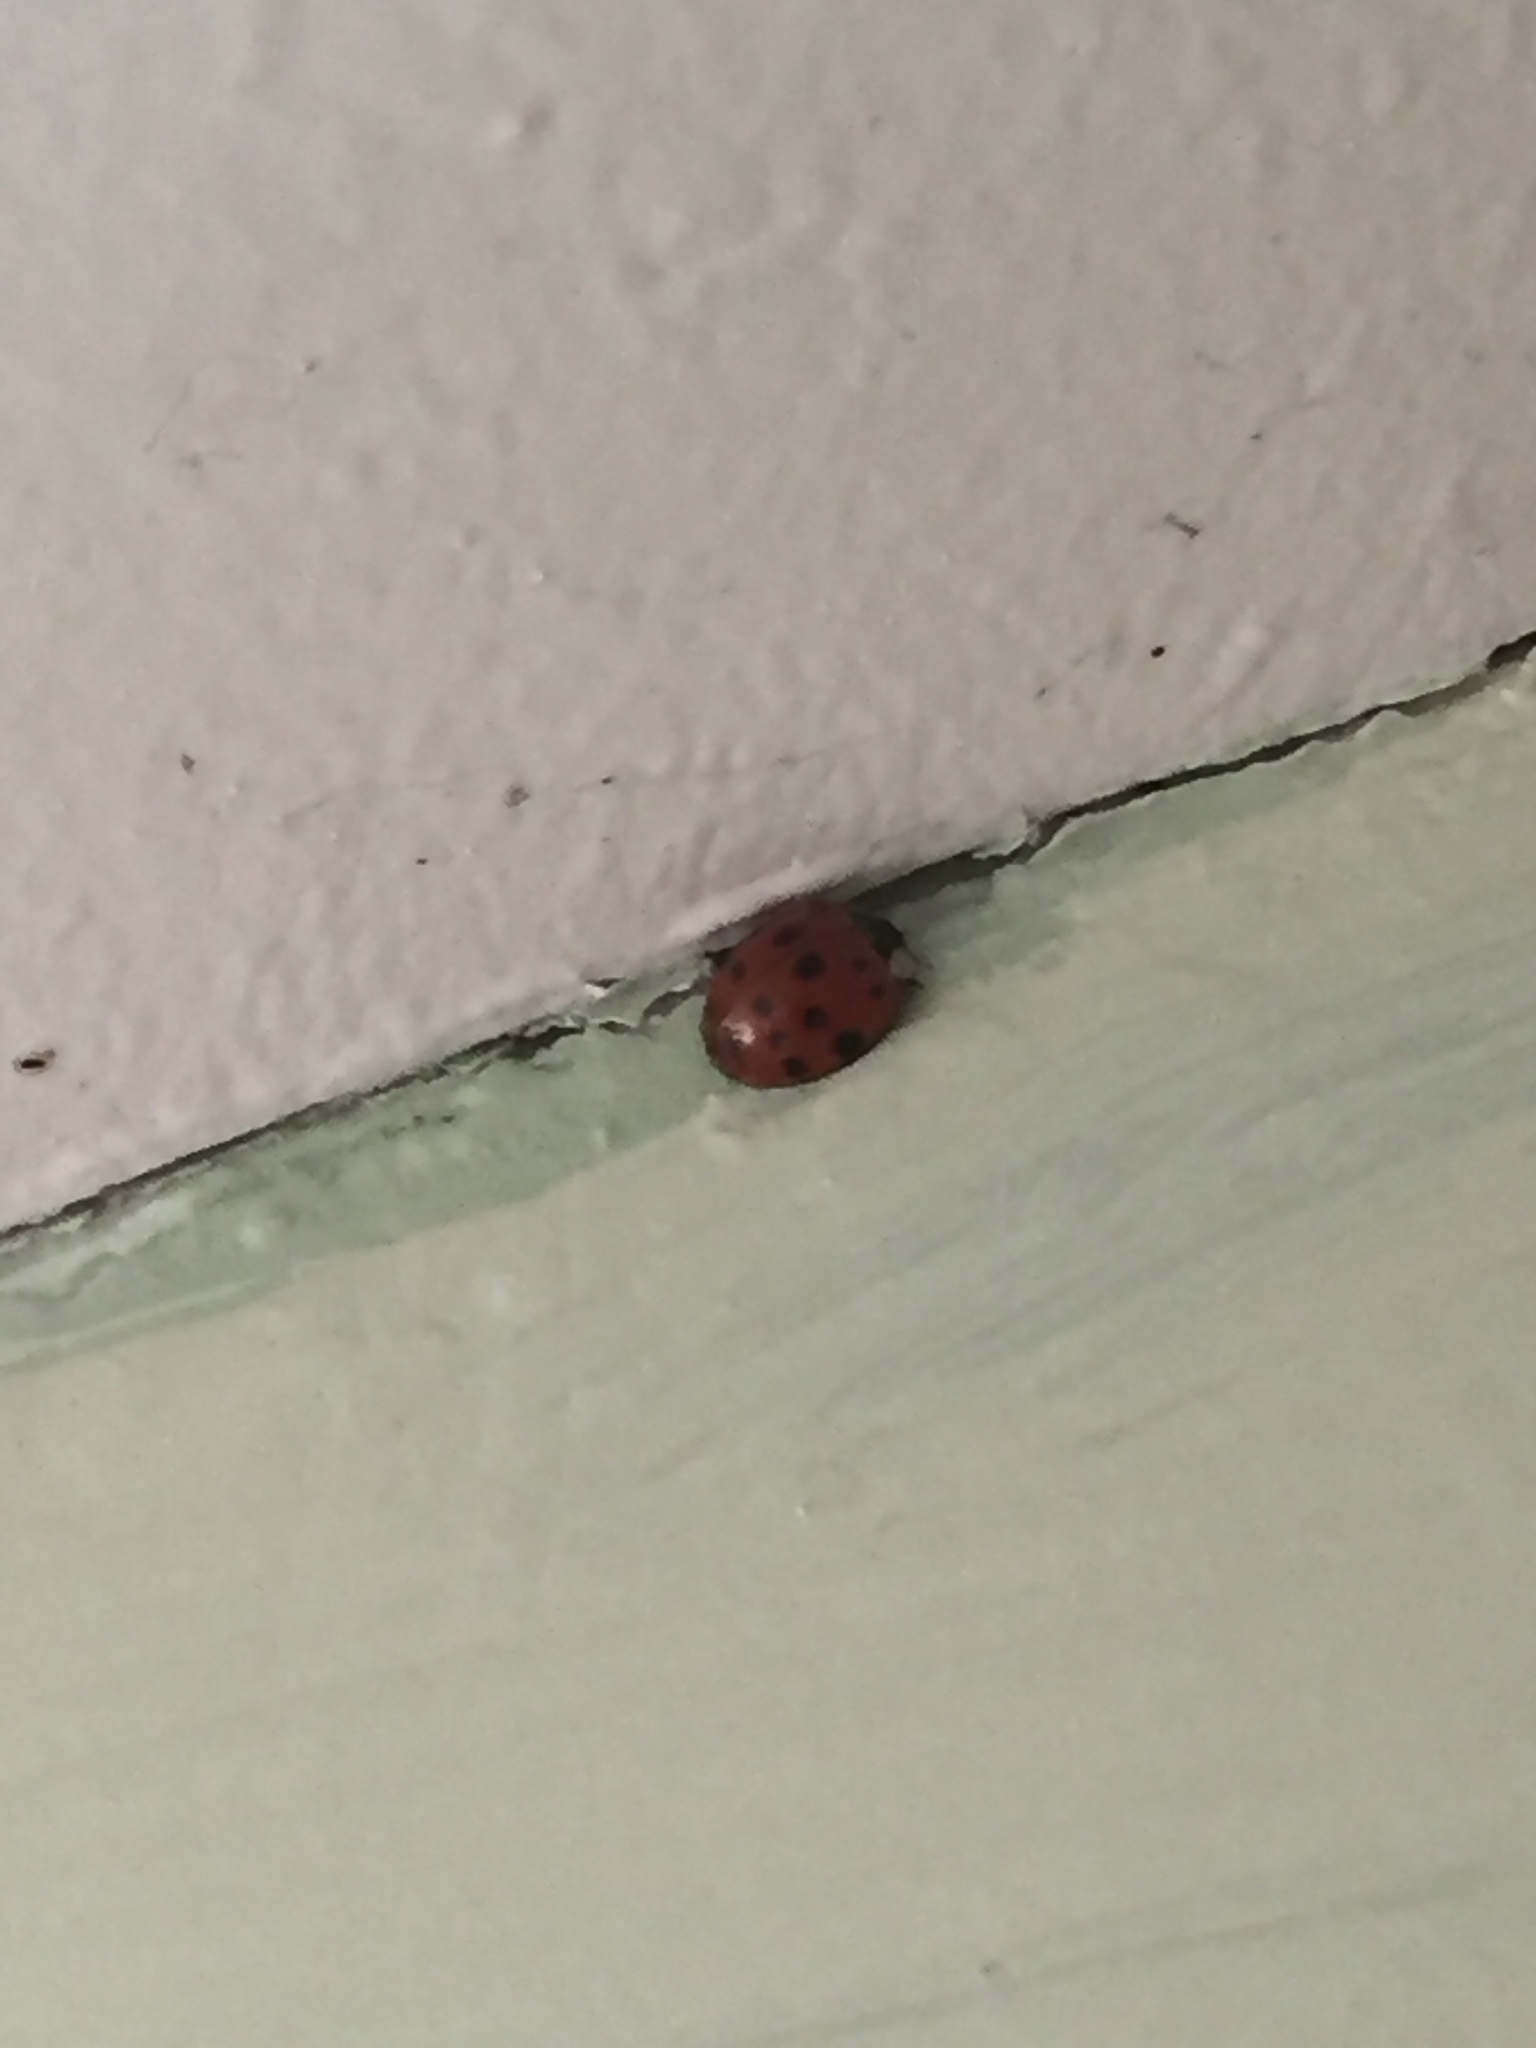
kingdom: Animalia
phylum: Arthropoda
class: Insecta
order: Coleoptera
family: Coccinellidae
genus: Harmonia
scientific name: Harmonia axyridis
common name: Harlequin ladybird
